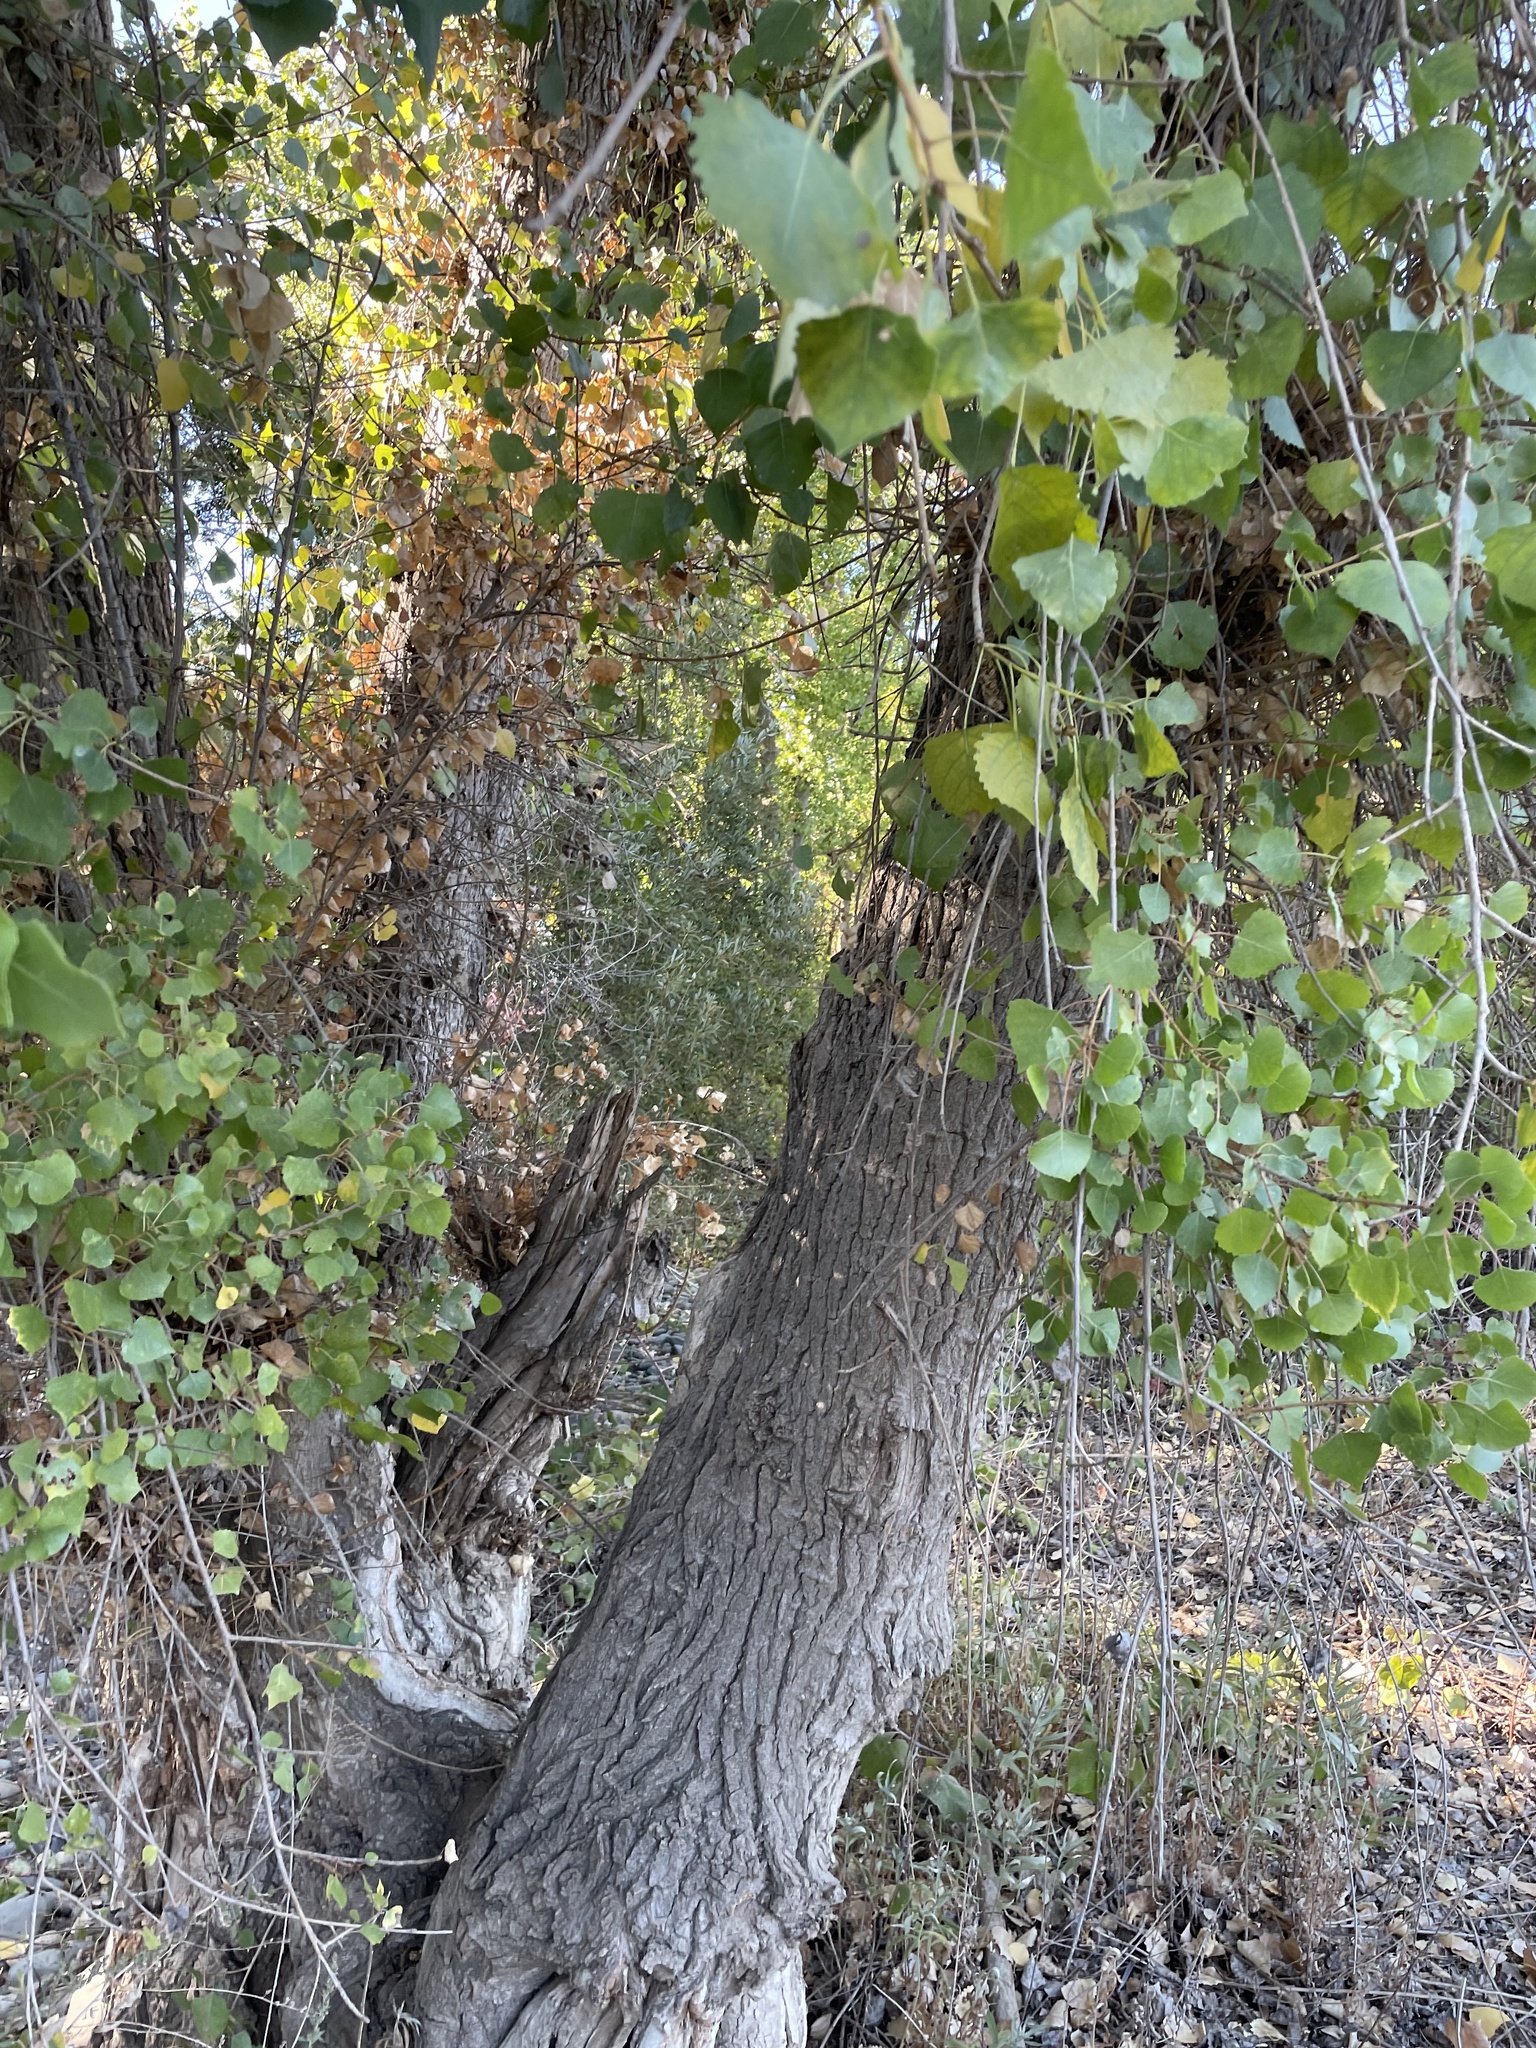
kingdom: Plantae
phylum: Tracheophyta
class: Magnoliopsida
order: Malpighiales
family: Salicaceae
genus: Populus
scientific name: Populus fremontii
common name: Fremont's cottonwood
